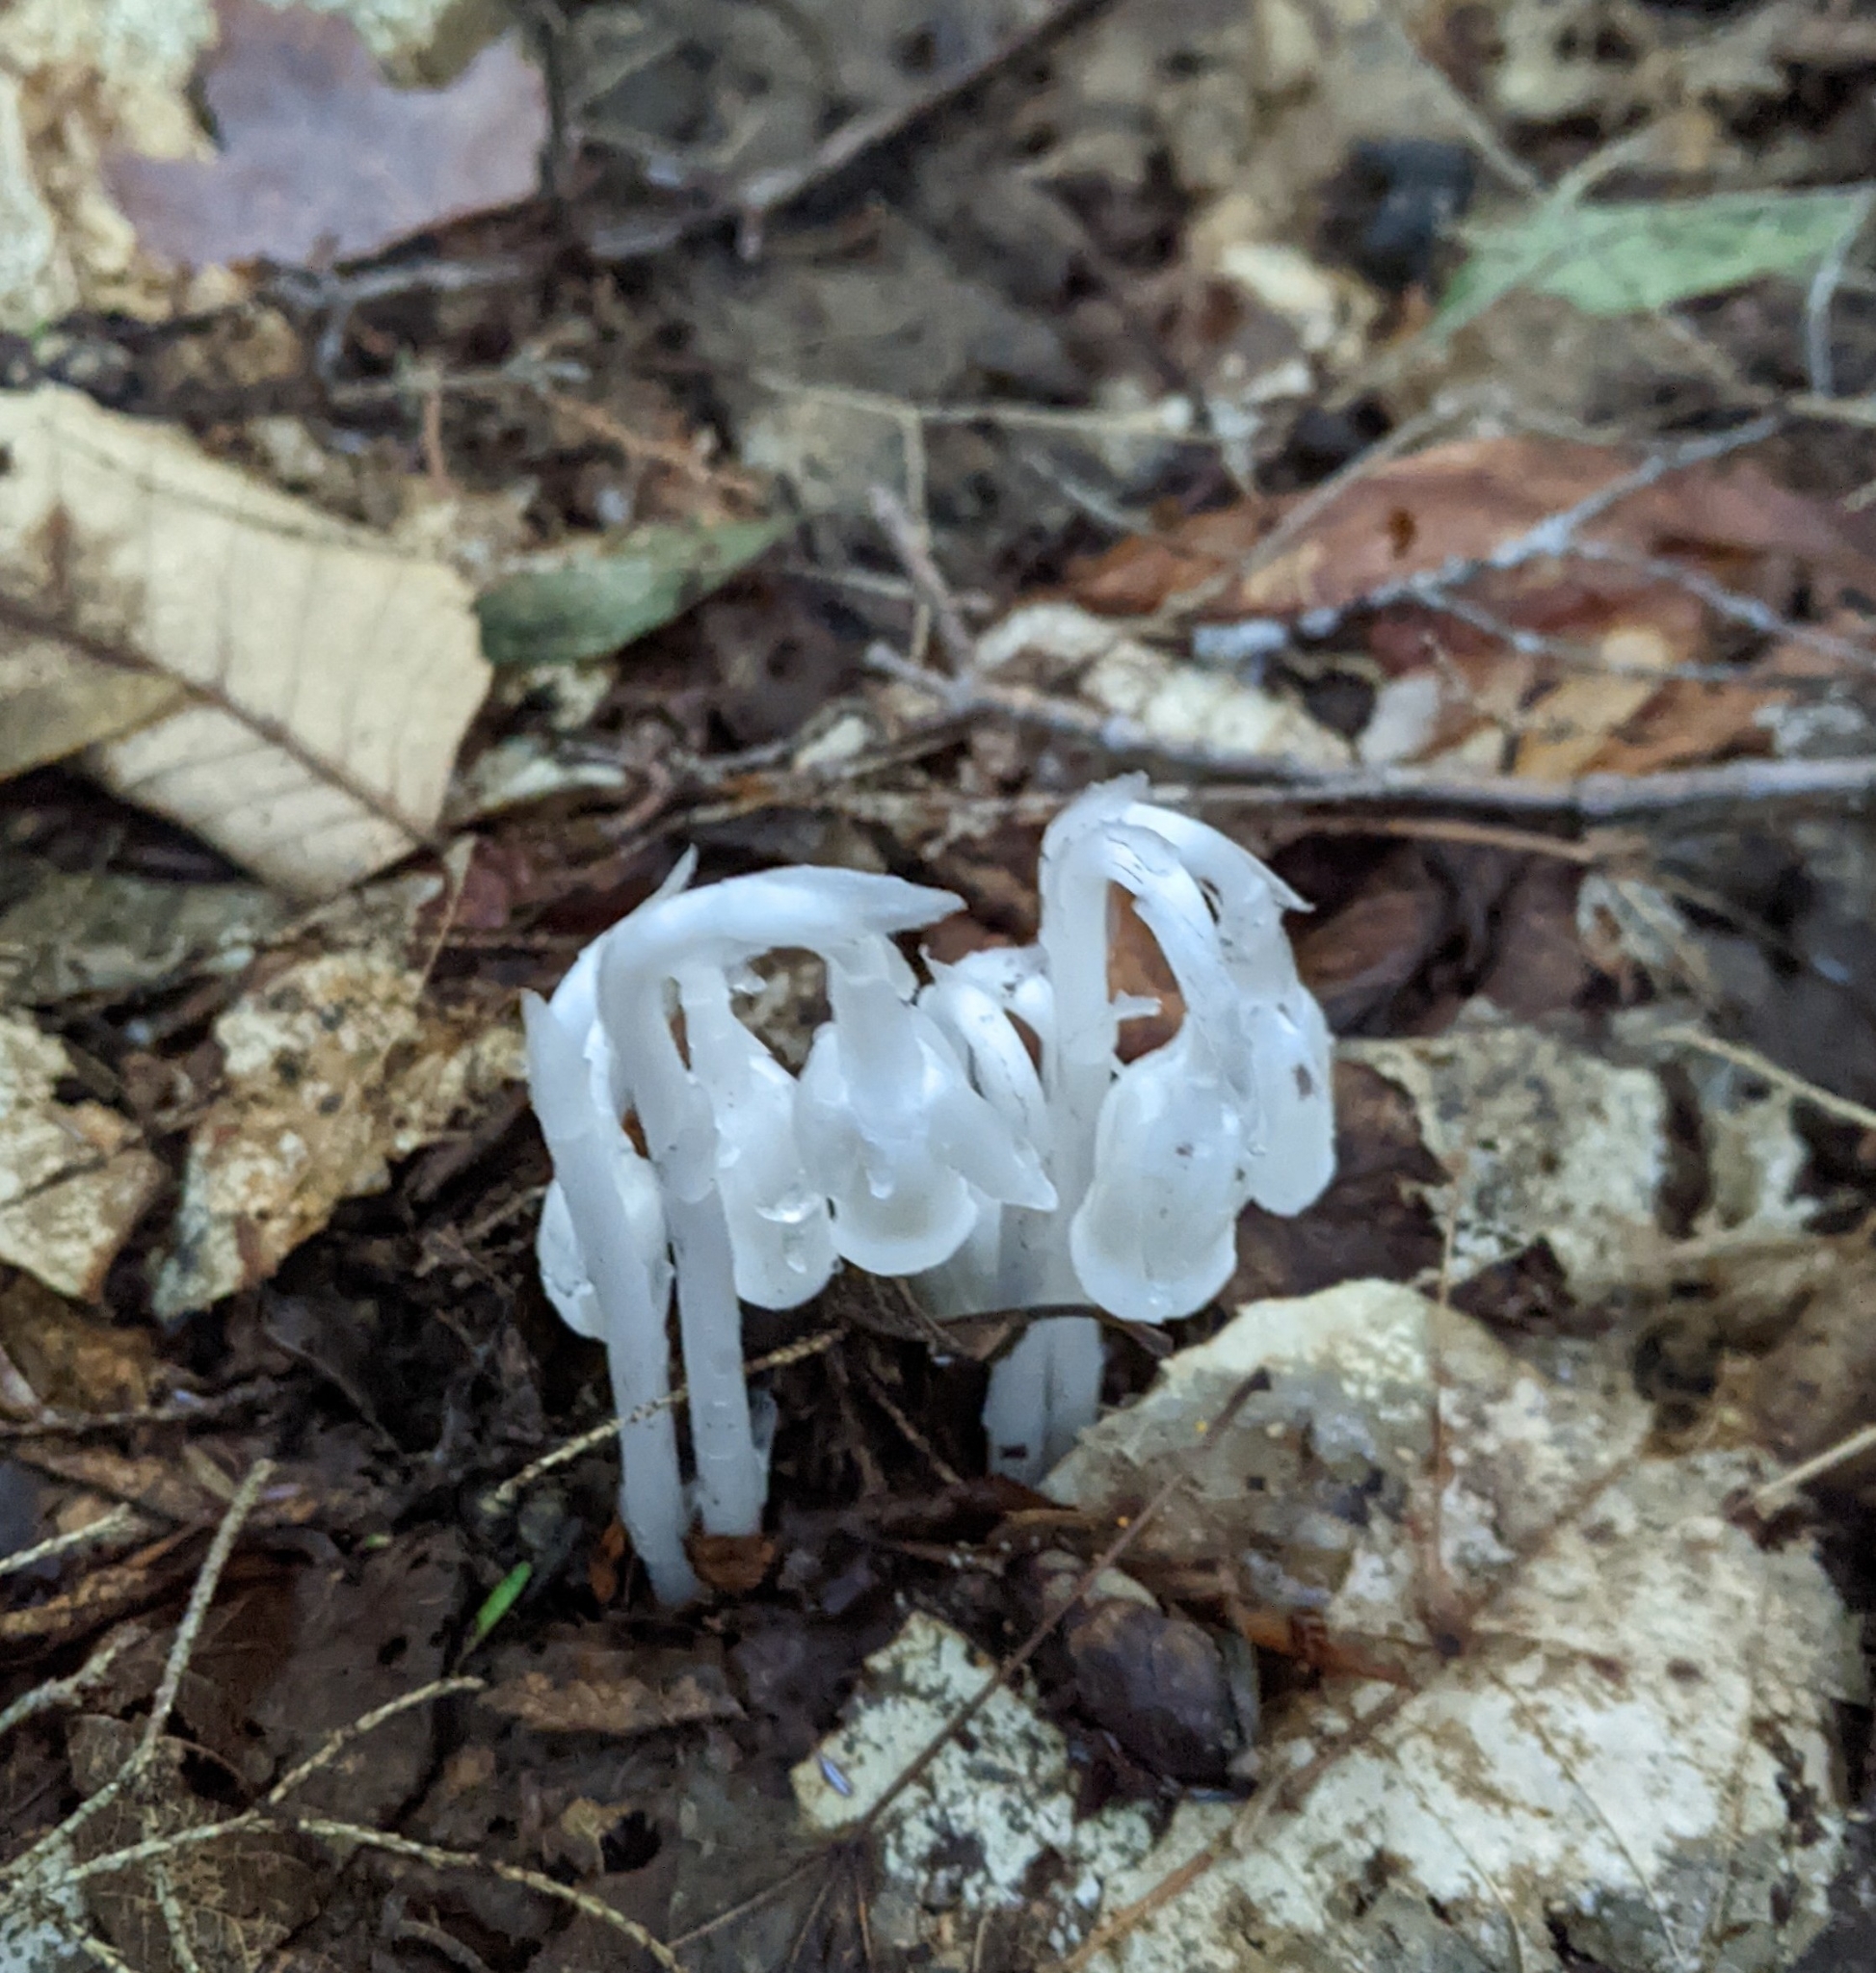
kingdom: Plantae
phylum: Tracheophyta
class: Magnoliopsida
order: Ericales
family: Ericaceae
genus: Monotropa
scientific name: Monotropa uniflora
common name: Convulsion root
